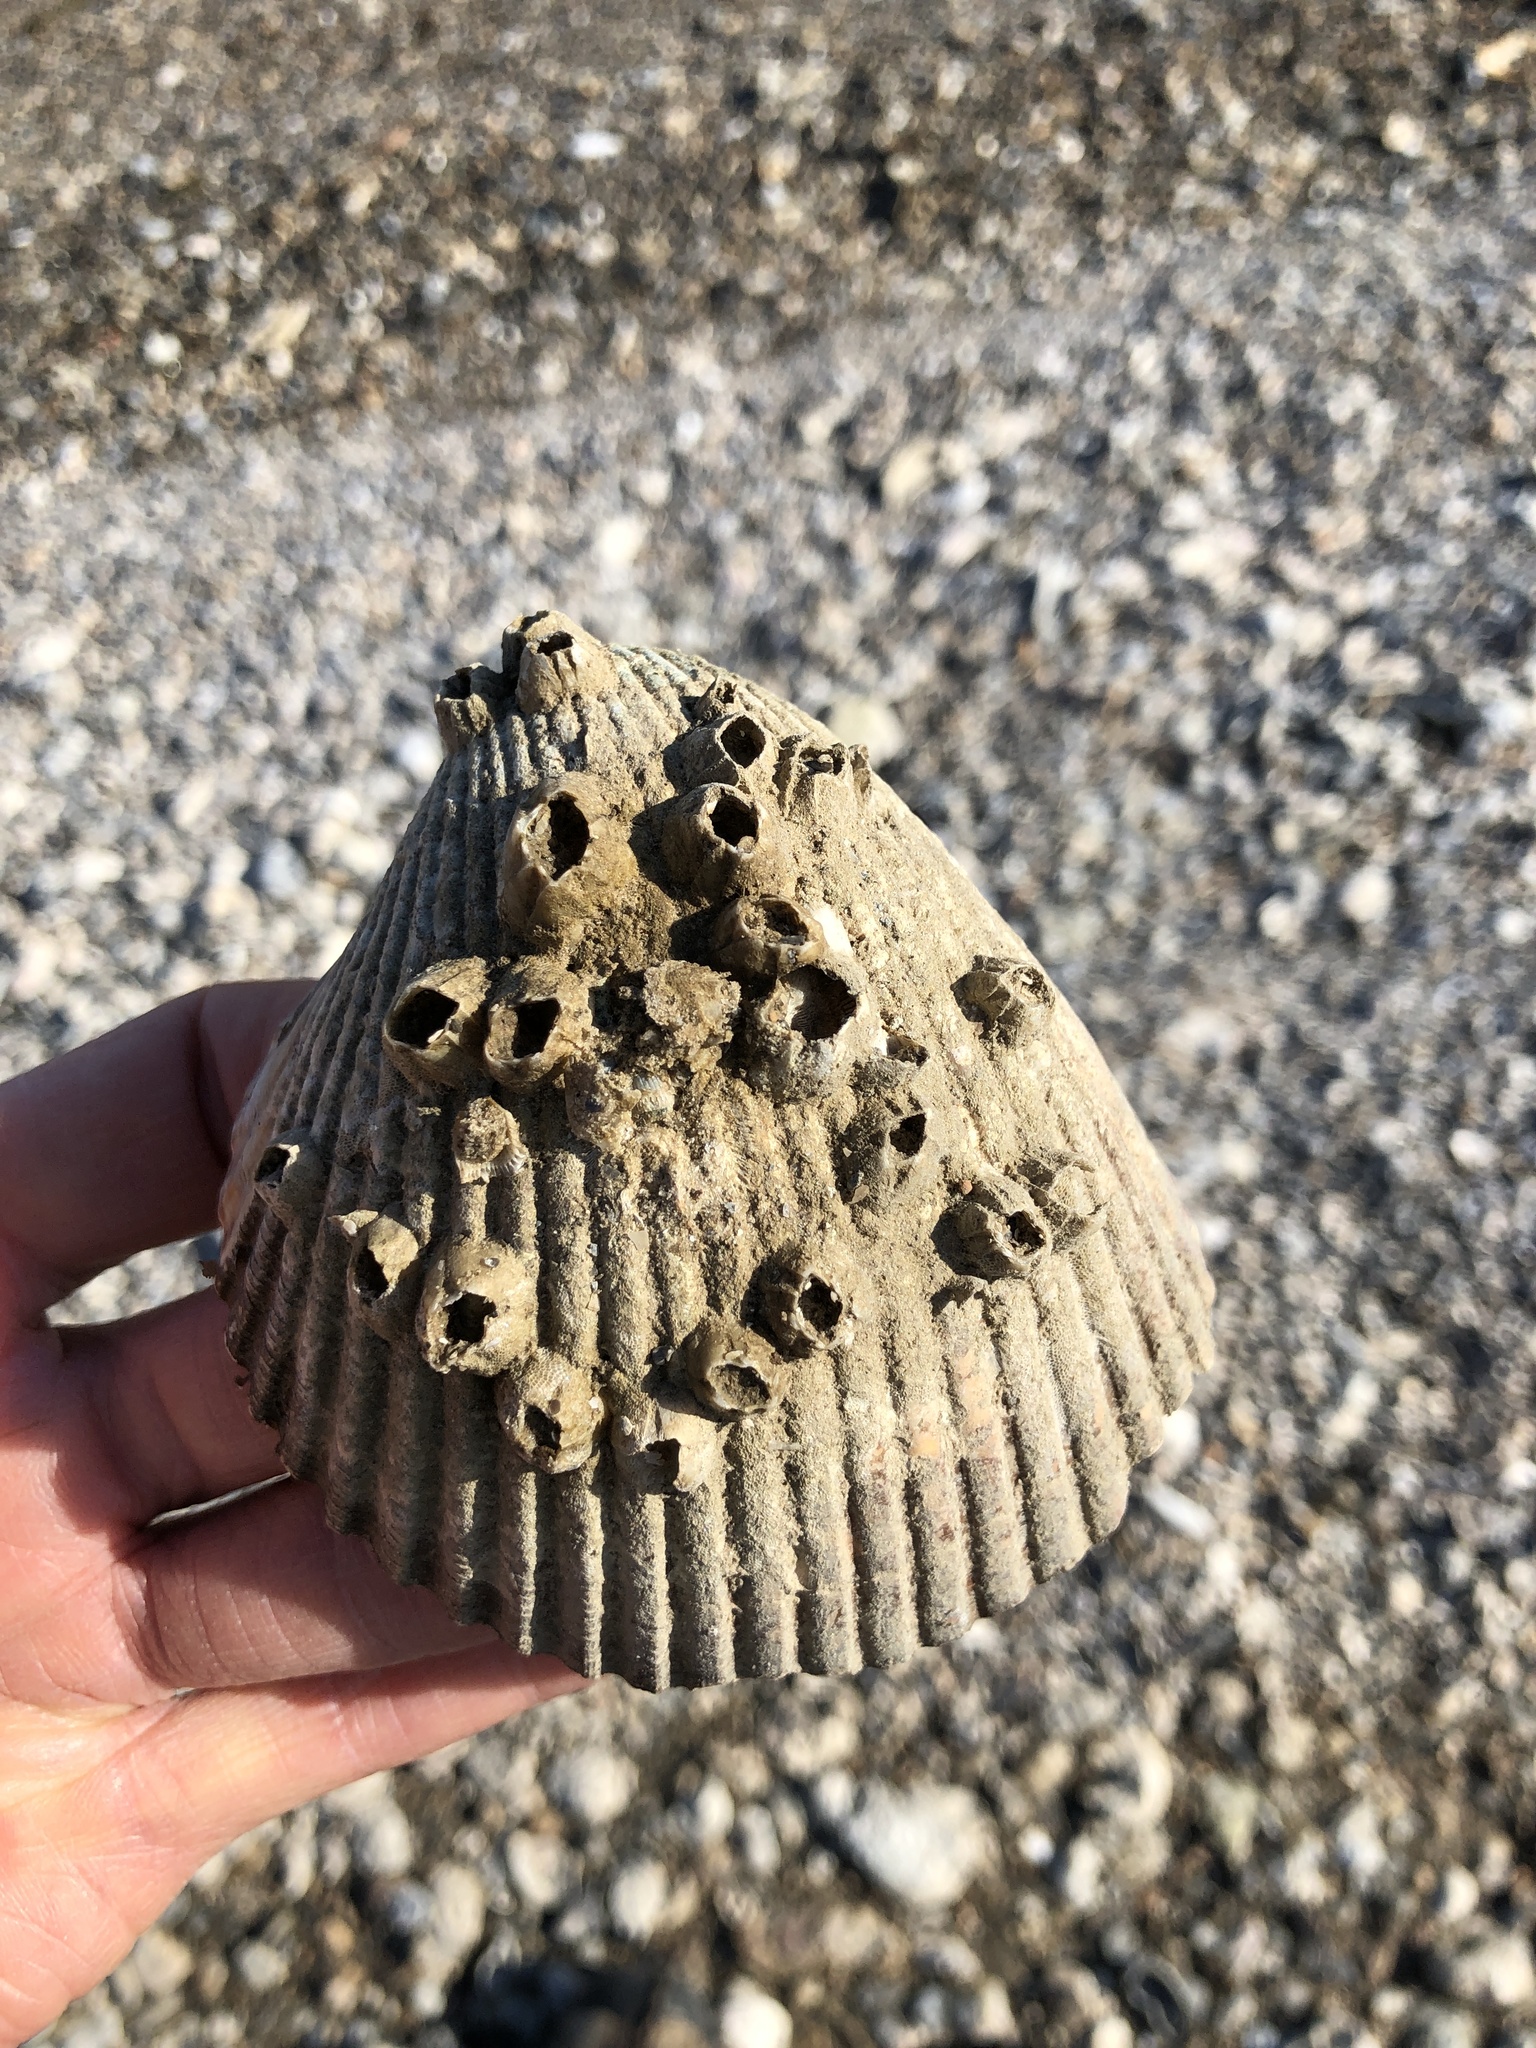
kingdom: Animalia
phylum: Mollusca
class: Bivalvia
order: Cardiida
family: Cardiidae
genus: Dinocardium
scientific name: Dinocardium robustum
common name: Atlantic giant cockle
